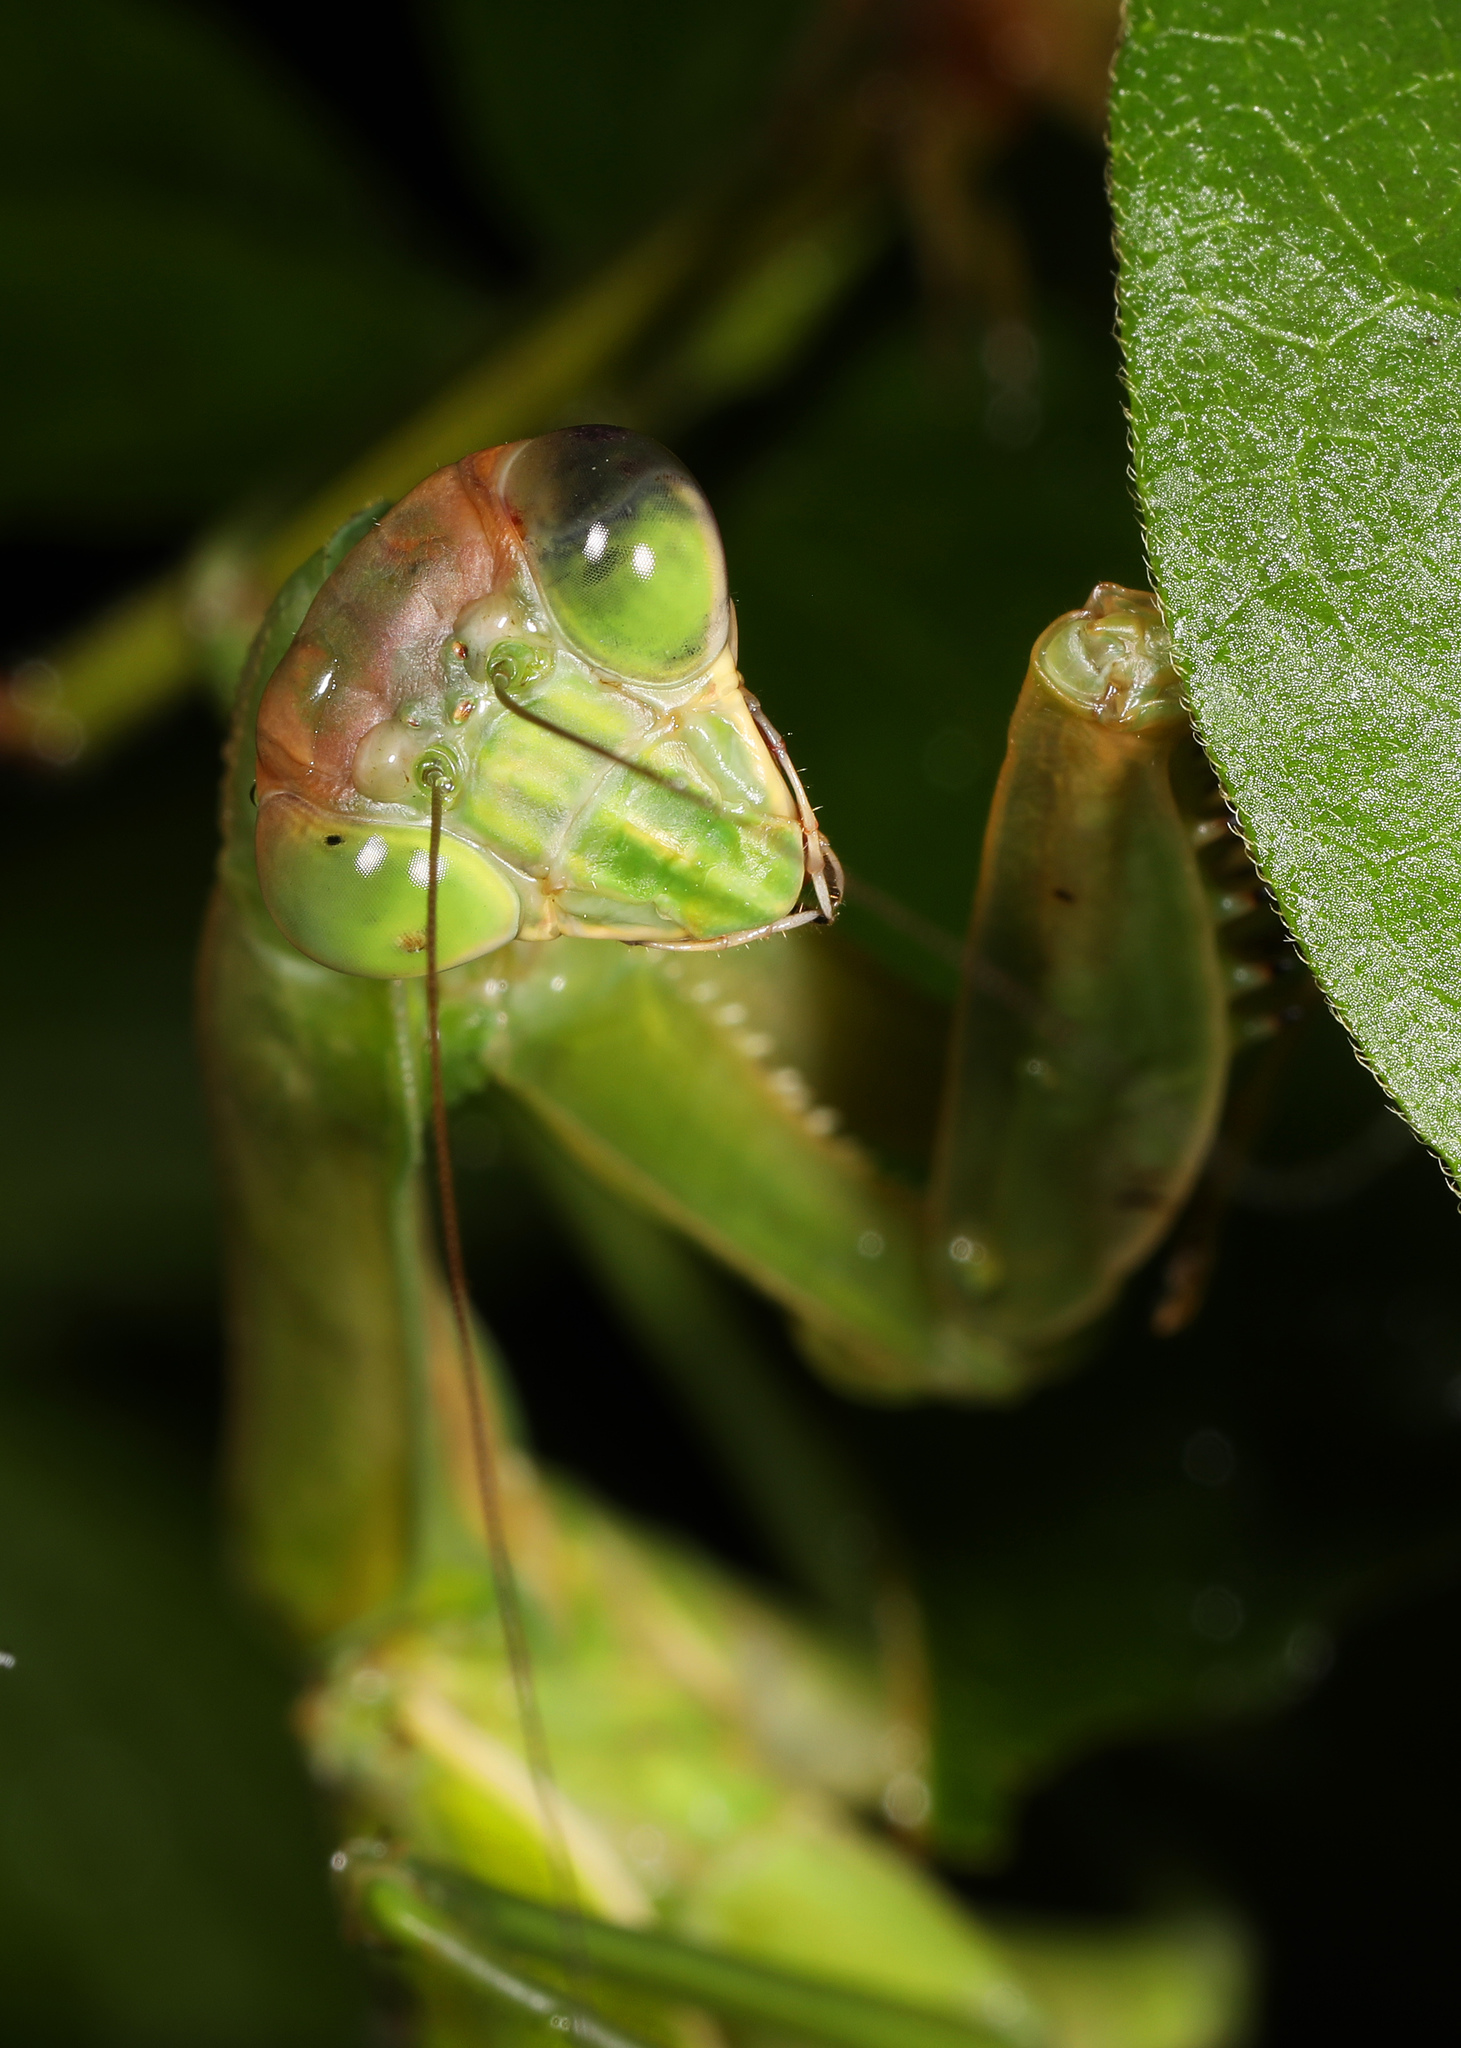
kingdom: Animalia
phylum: Arthropoda
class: Insecta
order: Mantodea
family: Mantidae
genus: Tenodera
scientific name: Tenodera sinensis
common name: Chinese mantis
